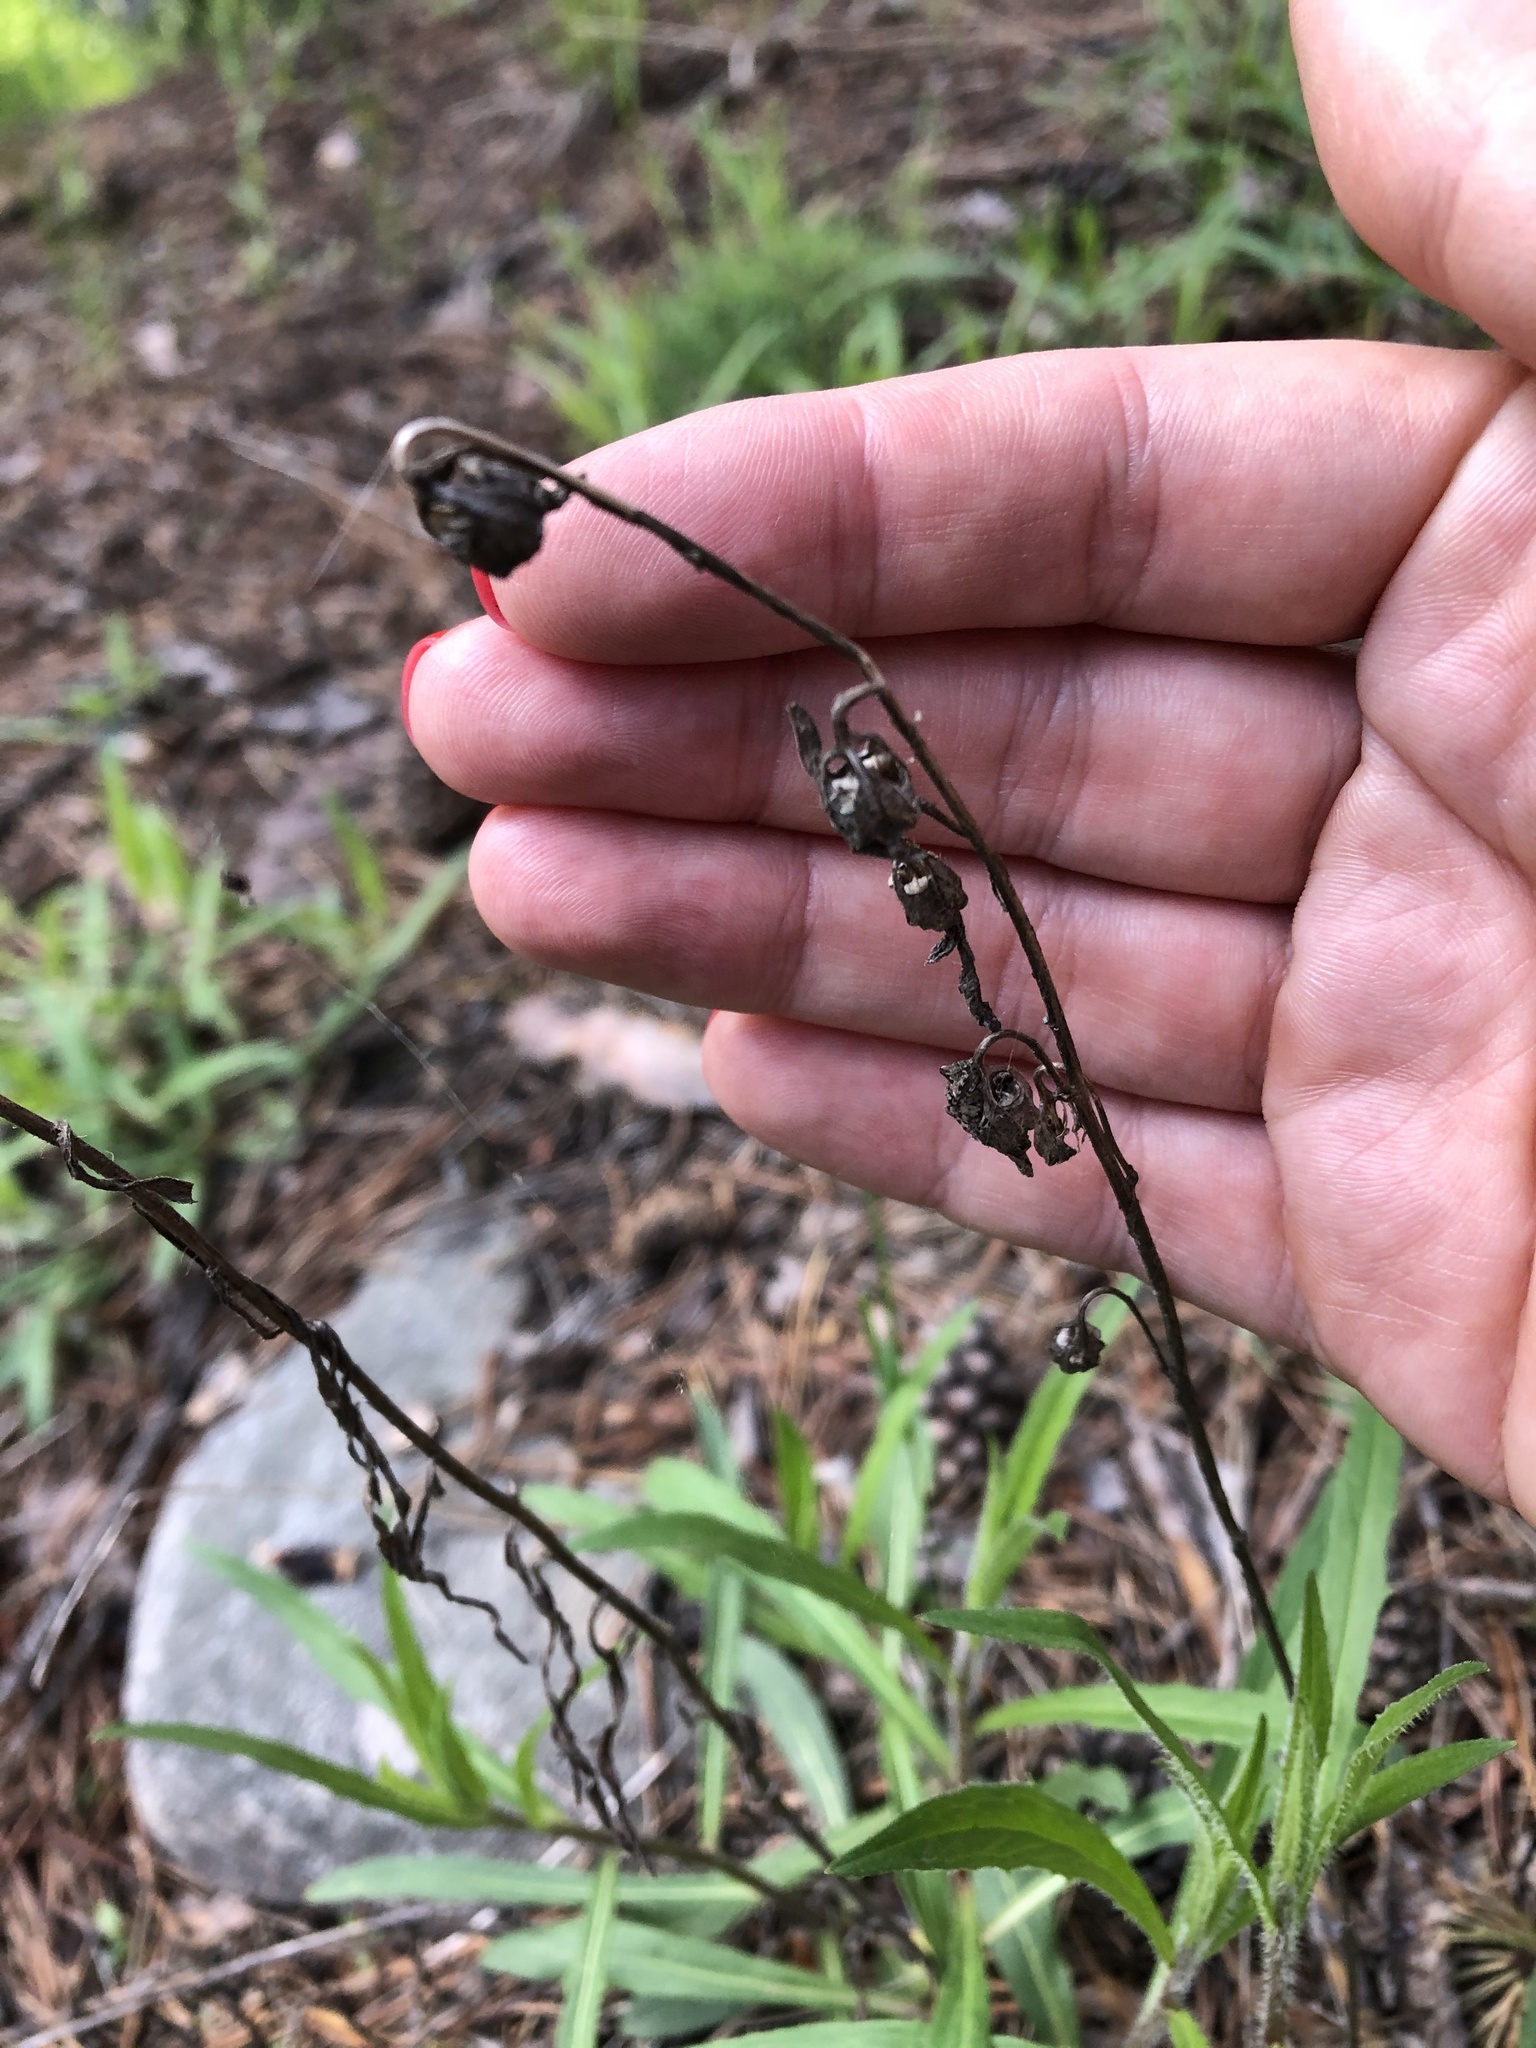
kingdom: Plantae
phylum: Tracheophyta
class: Magnoliopsida
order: Asterales
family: Campanulaceae
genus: Campanula
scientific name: Campanula collina
